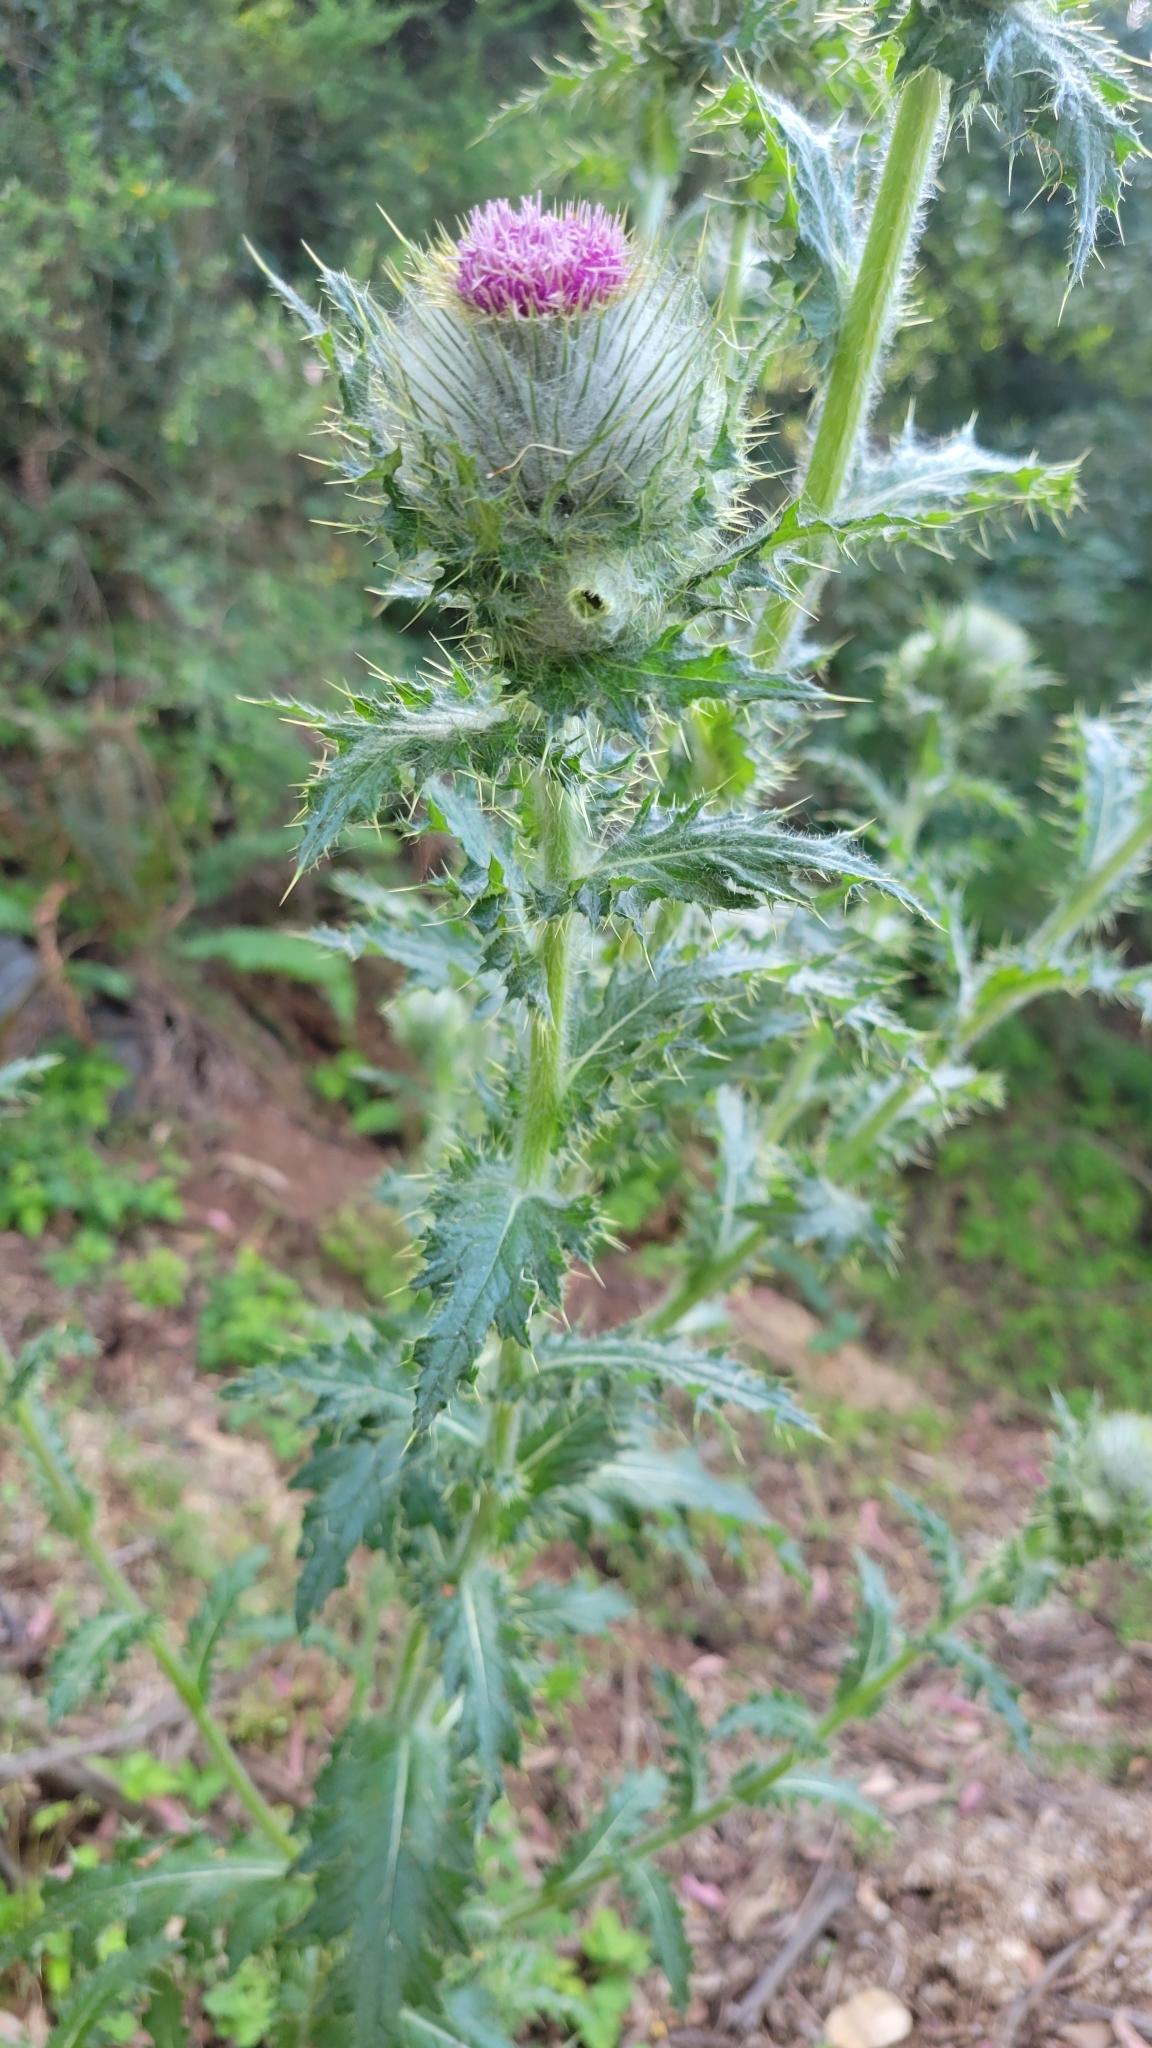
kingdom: Plantae
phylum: Tracheophyta
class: Magnoliopsida
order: Asterales
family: Asteraceae
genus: Cirsium
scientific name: Cirsium brevistylum
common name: Indian thistle
